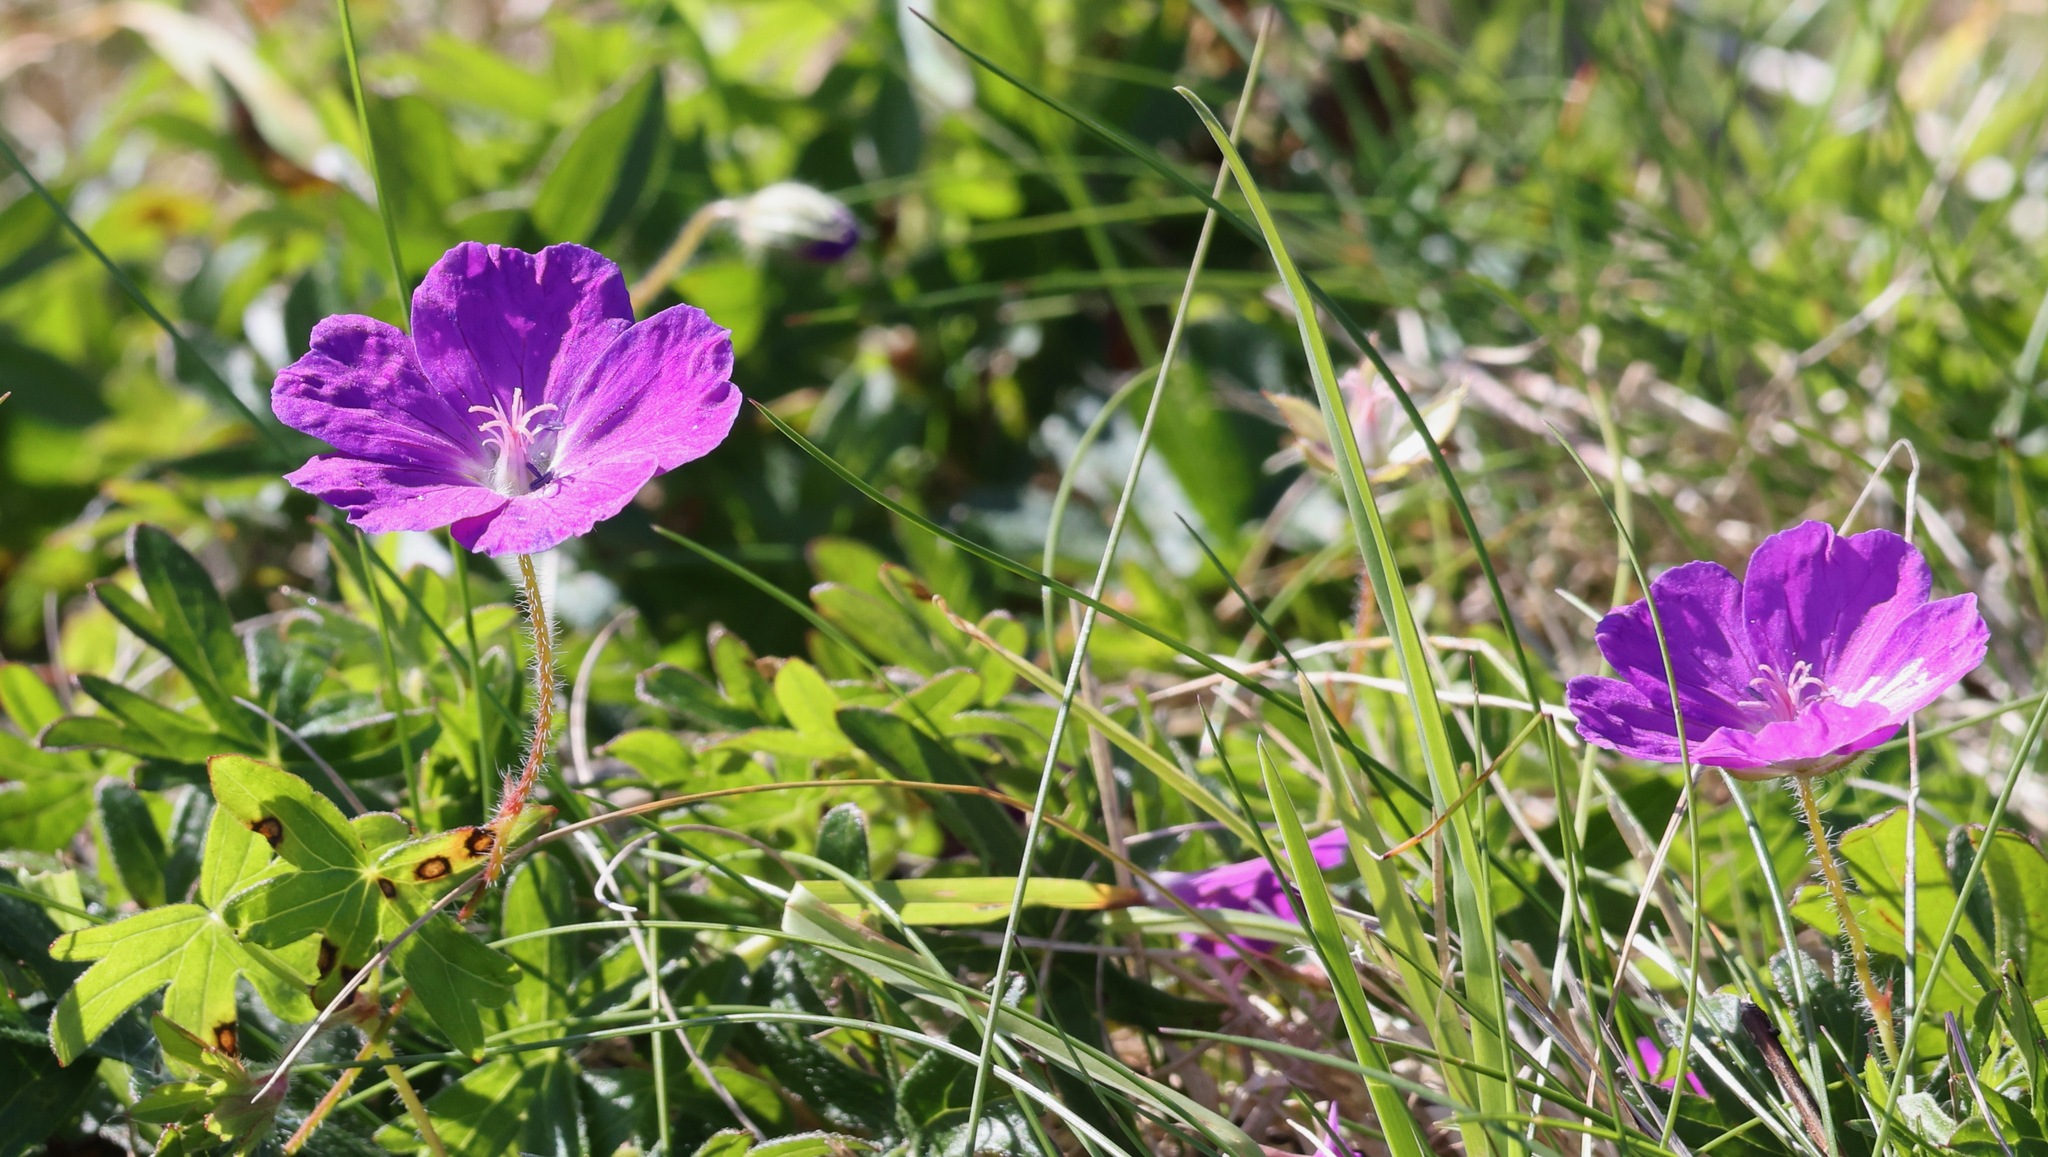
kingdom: Plantae
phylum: Tracheophyta
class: Magnoliopsida
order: Geraniales
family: Geraniaceae
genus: Geranium
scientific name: Geranium sanguineum
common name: Bloody crane's-bill
